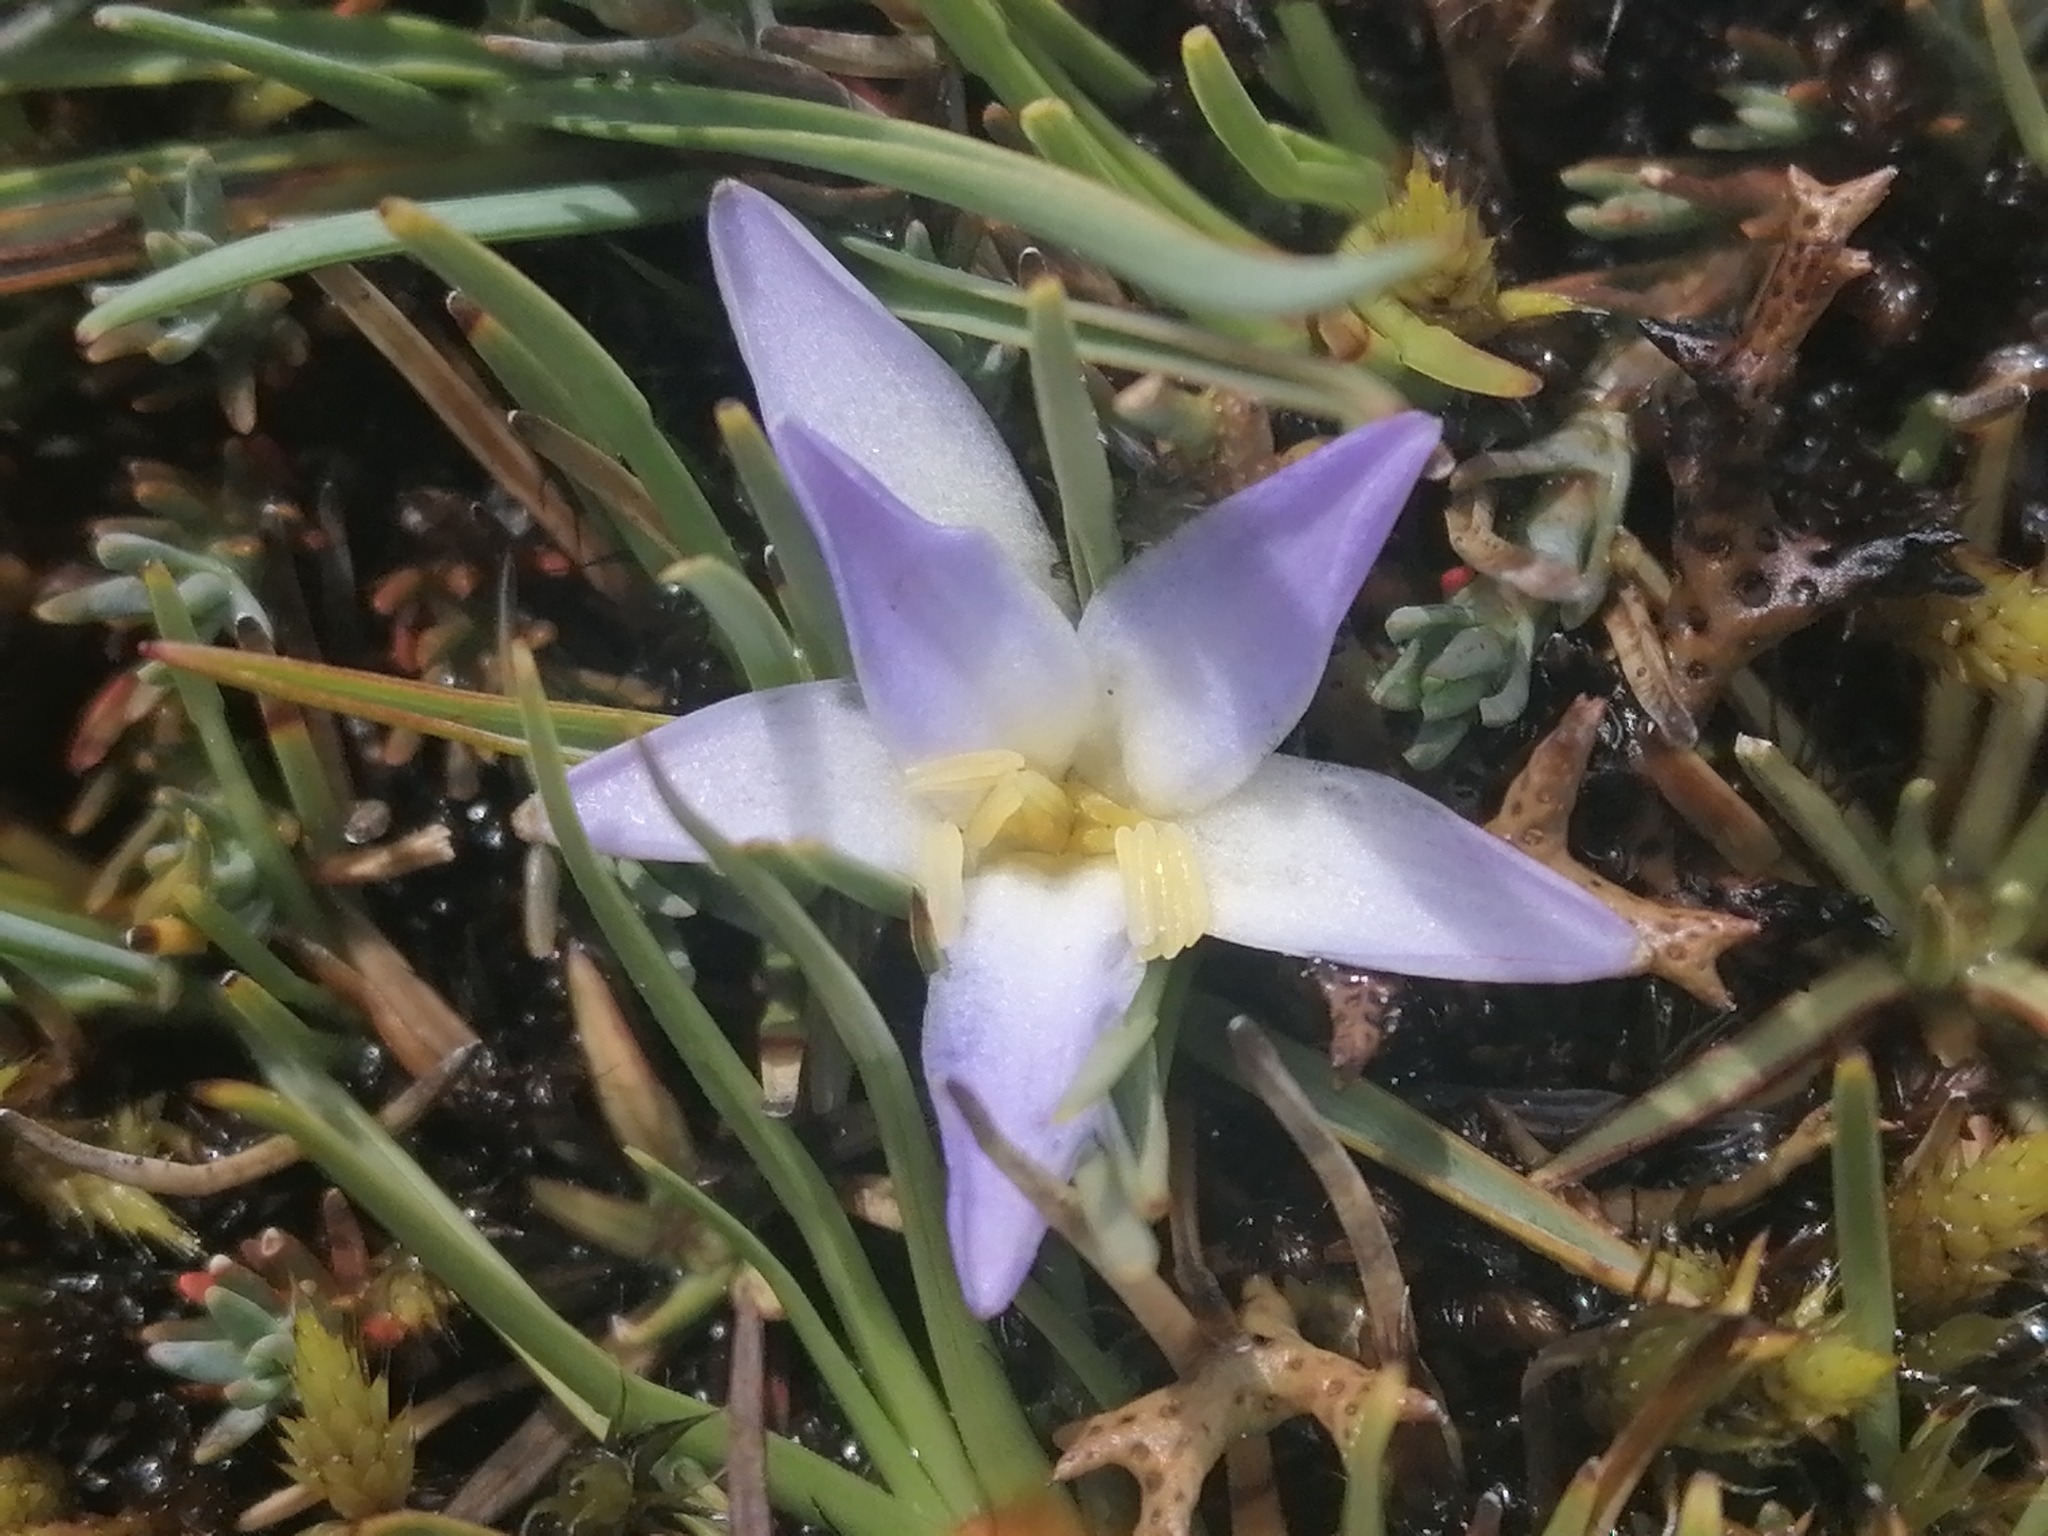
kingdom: Plantae
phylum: Tracheophyta
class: Liliopsida
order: Asparagales
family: Asphodelaceae
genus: Herpolirion
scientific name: Herpolirion novae-zelandiae
